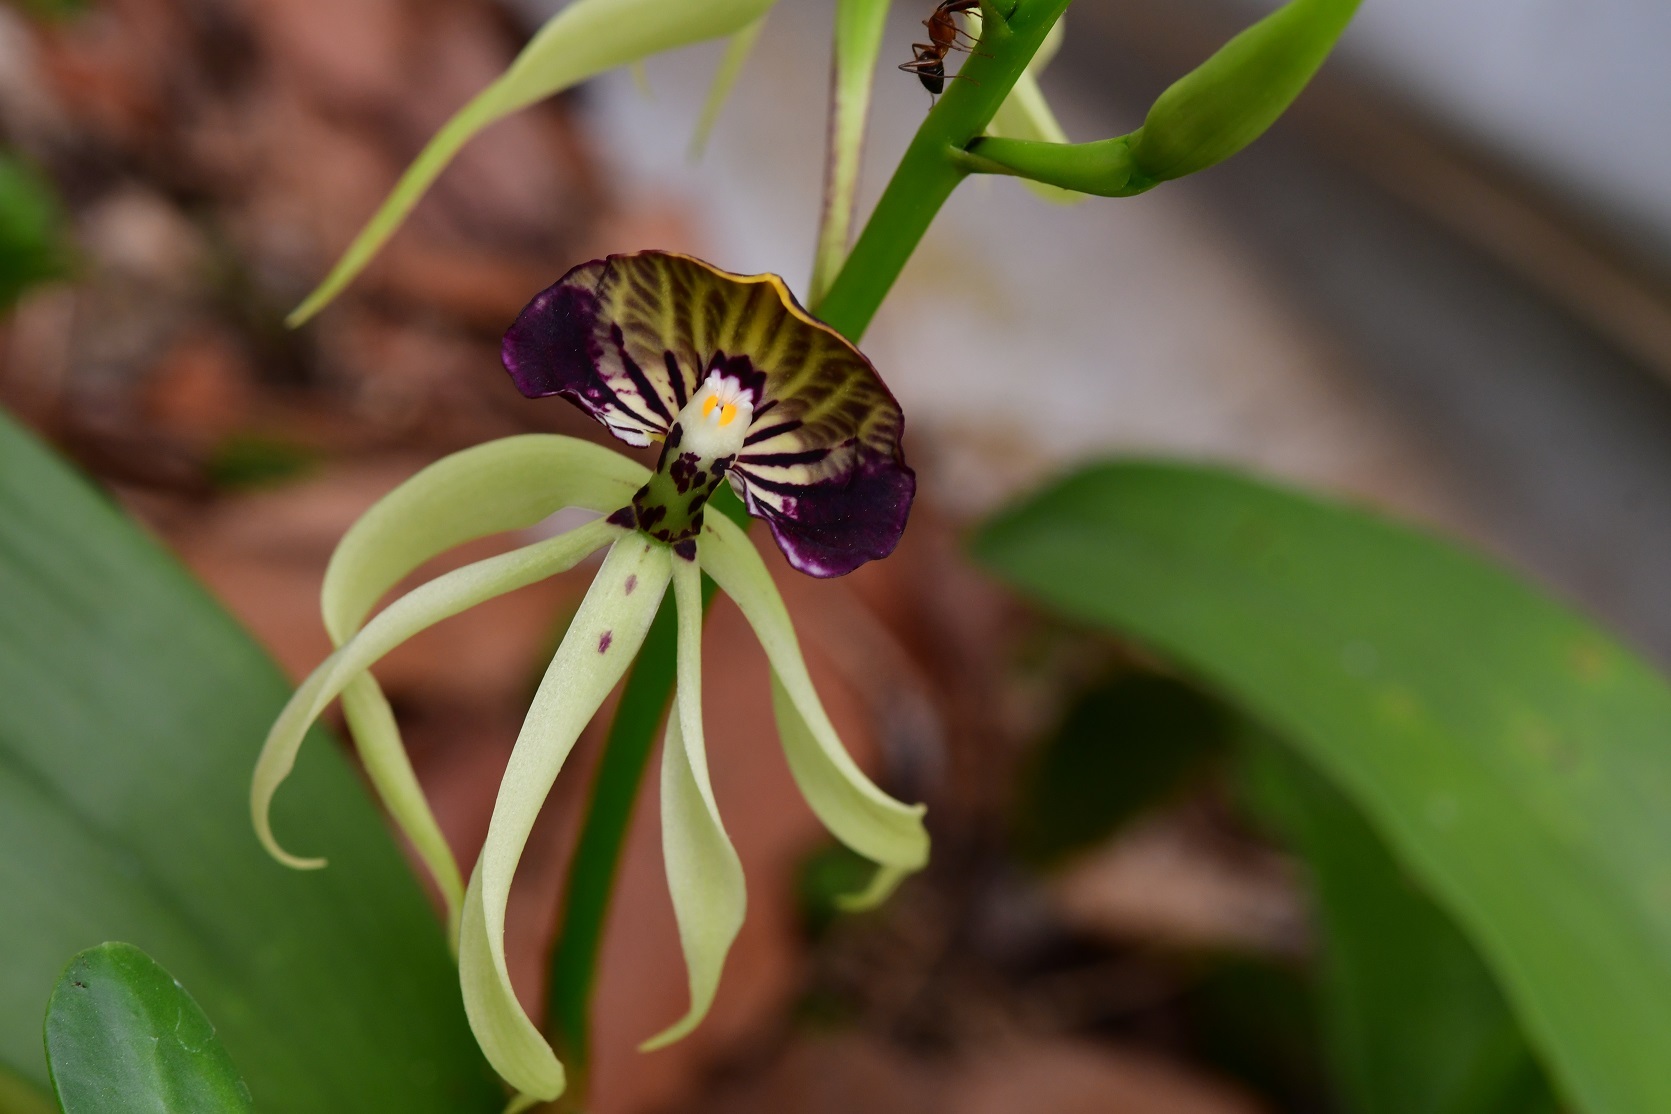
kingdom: Plantae
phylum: Tracheophyta
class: Liliopsida
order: Asparagales
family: Orchidaceae
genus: Prosthechea
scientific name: Prosthechea cochleata
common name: Clamshell orchid
